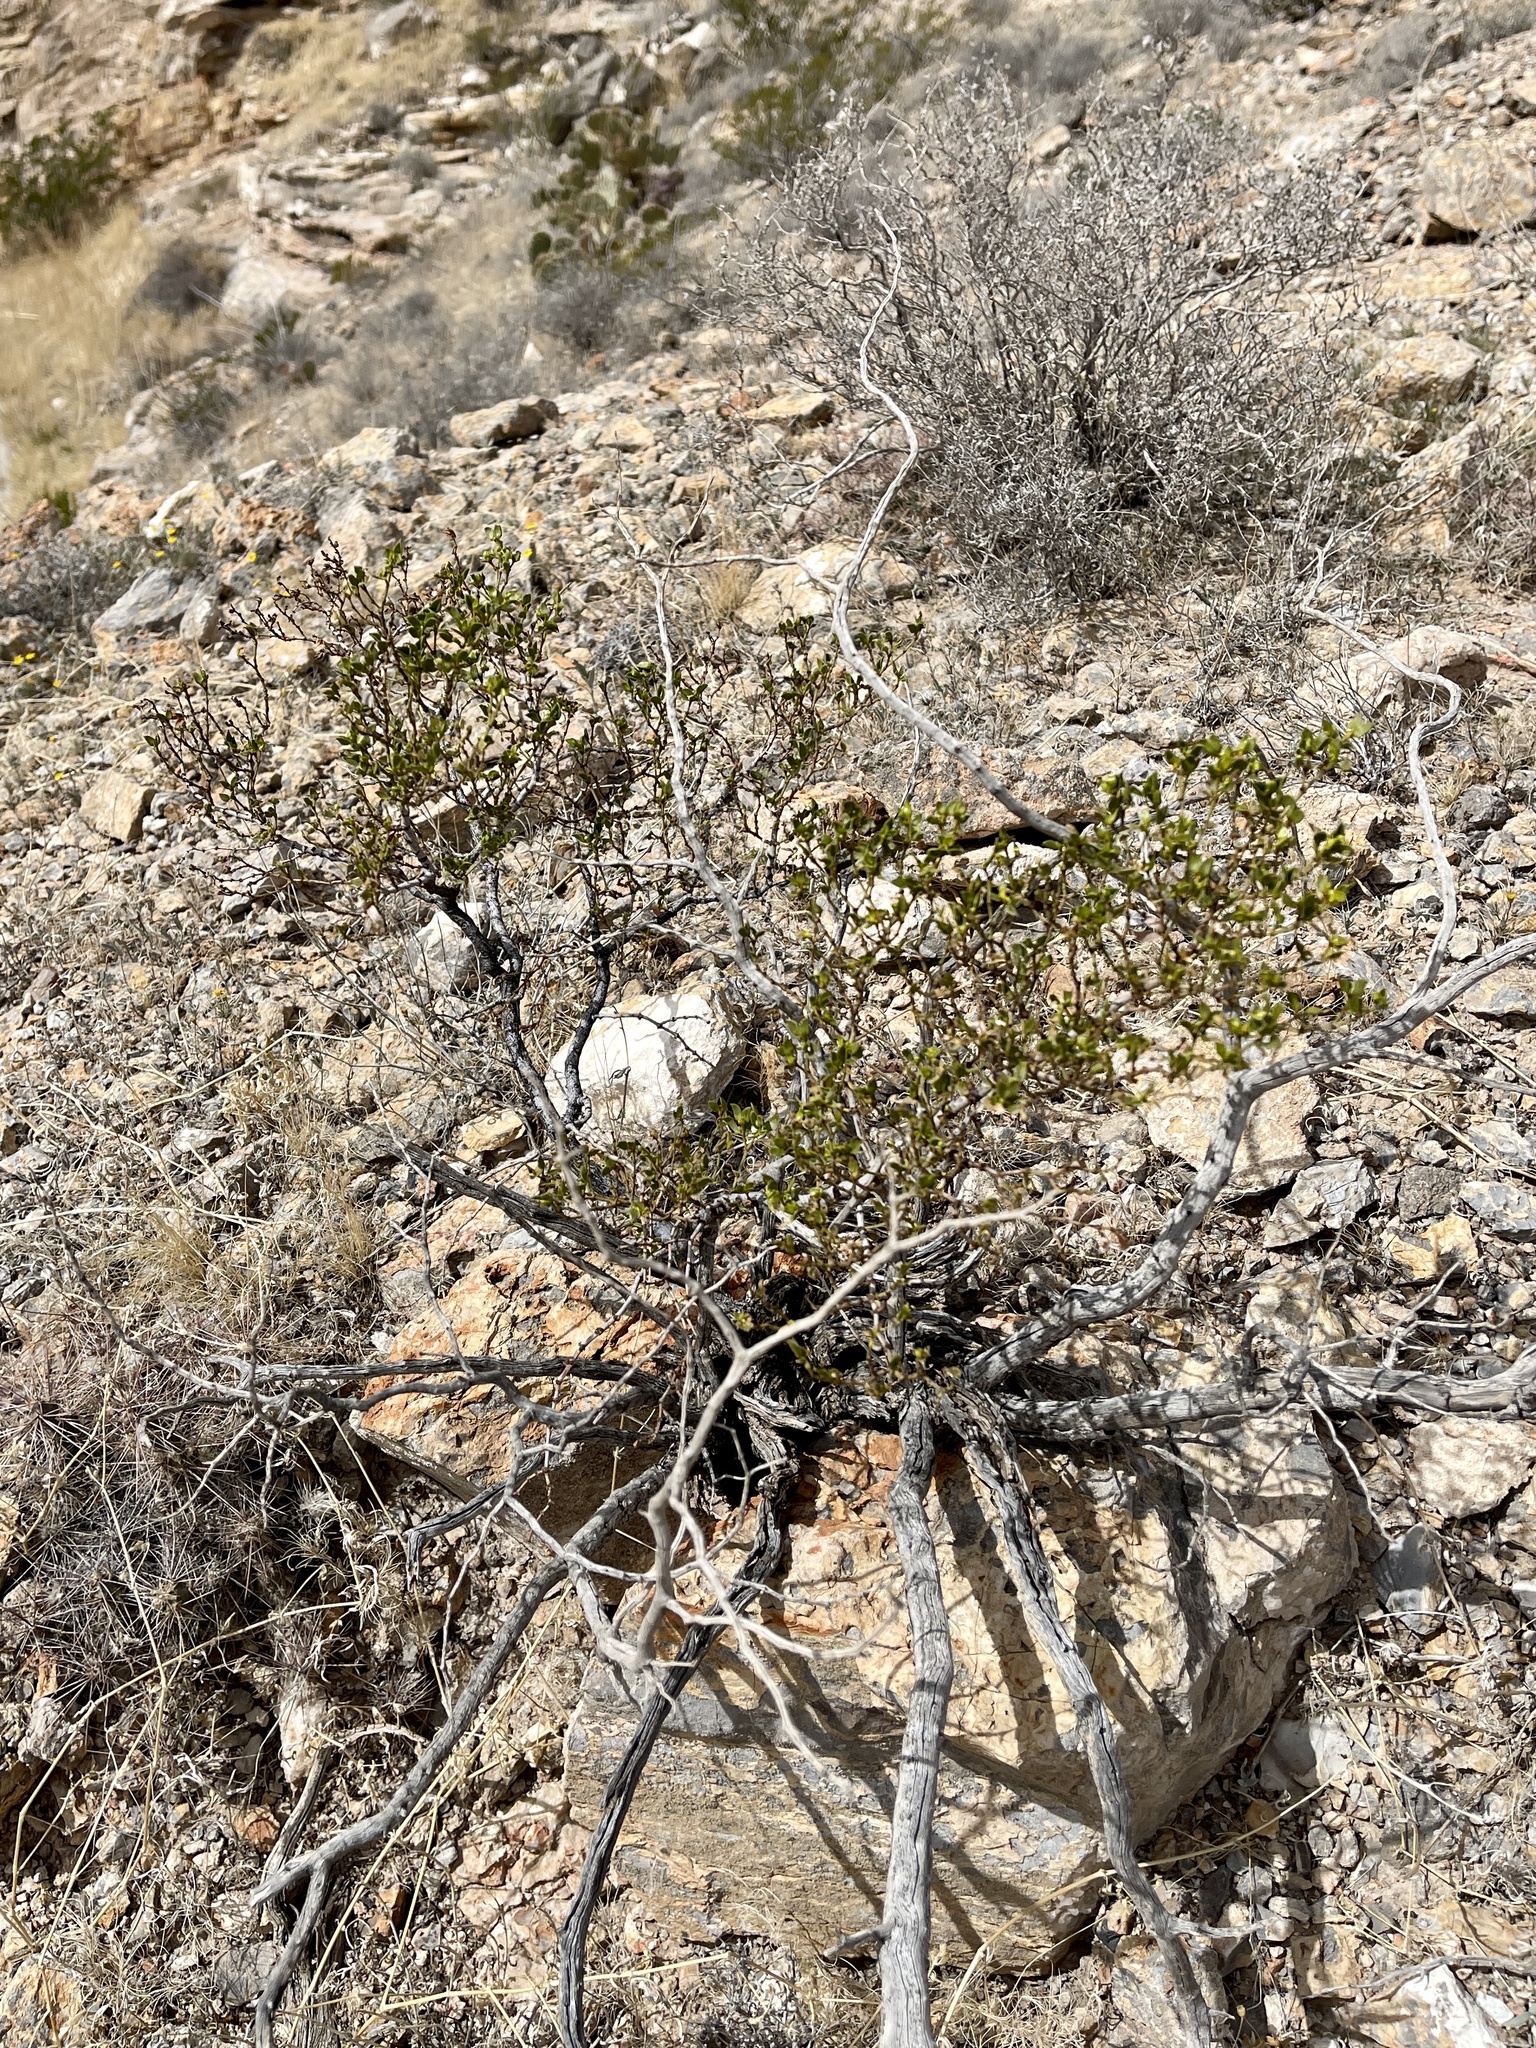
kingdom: Plantae
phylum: Tracheophyta
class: Magnoliopsida
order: Zygophyllales
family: Zygophyllaceae
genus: Larrea
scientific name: Larrea tridentata
